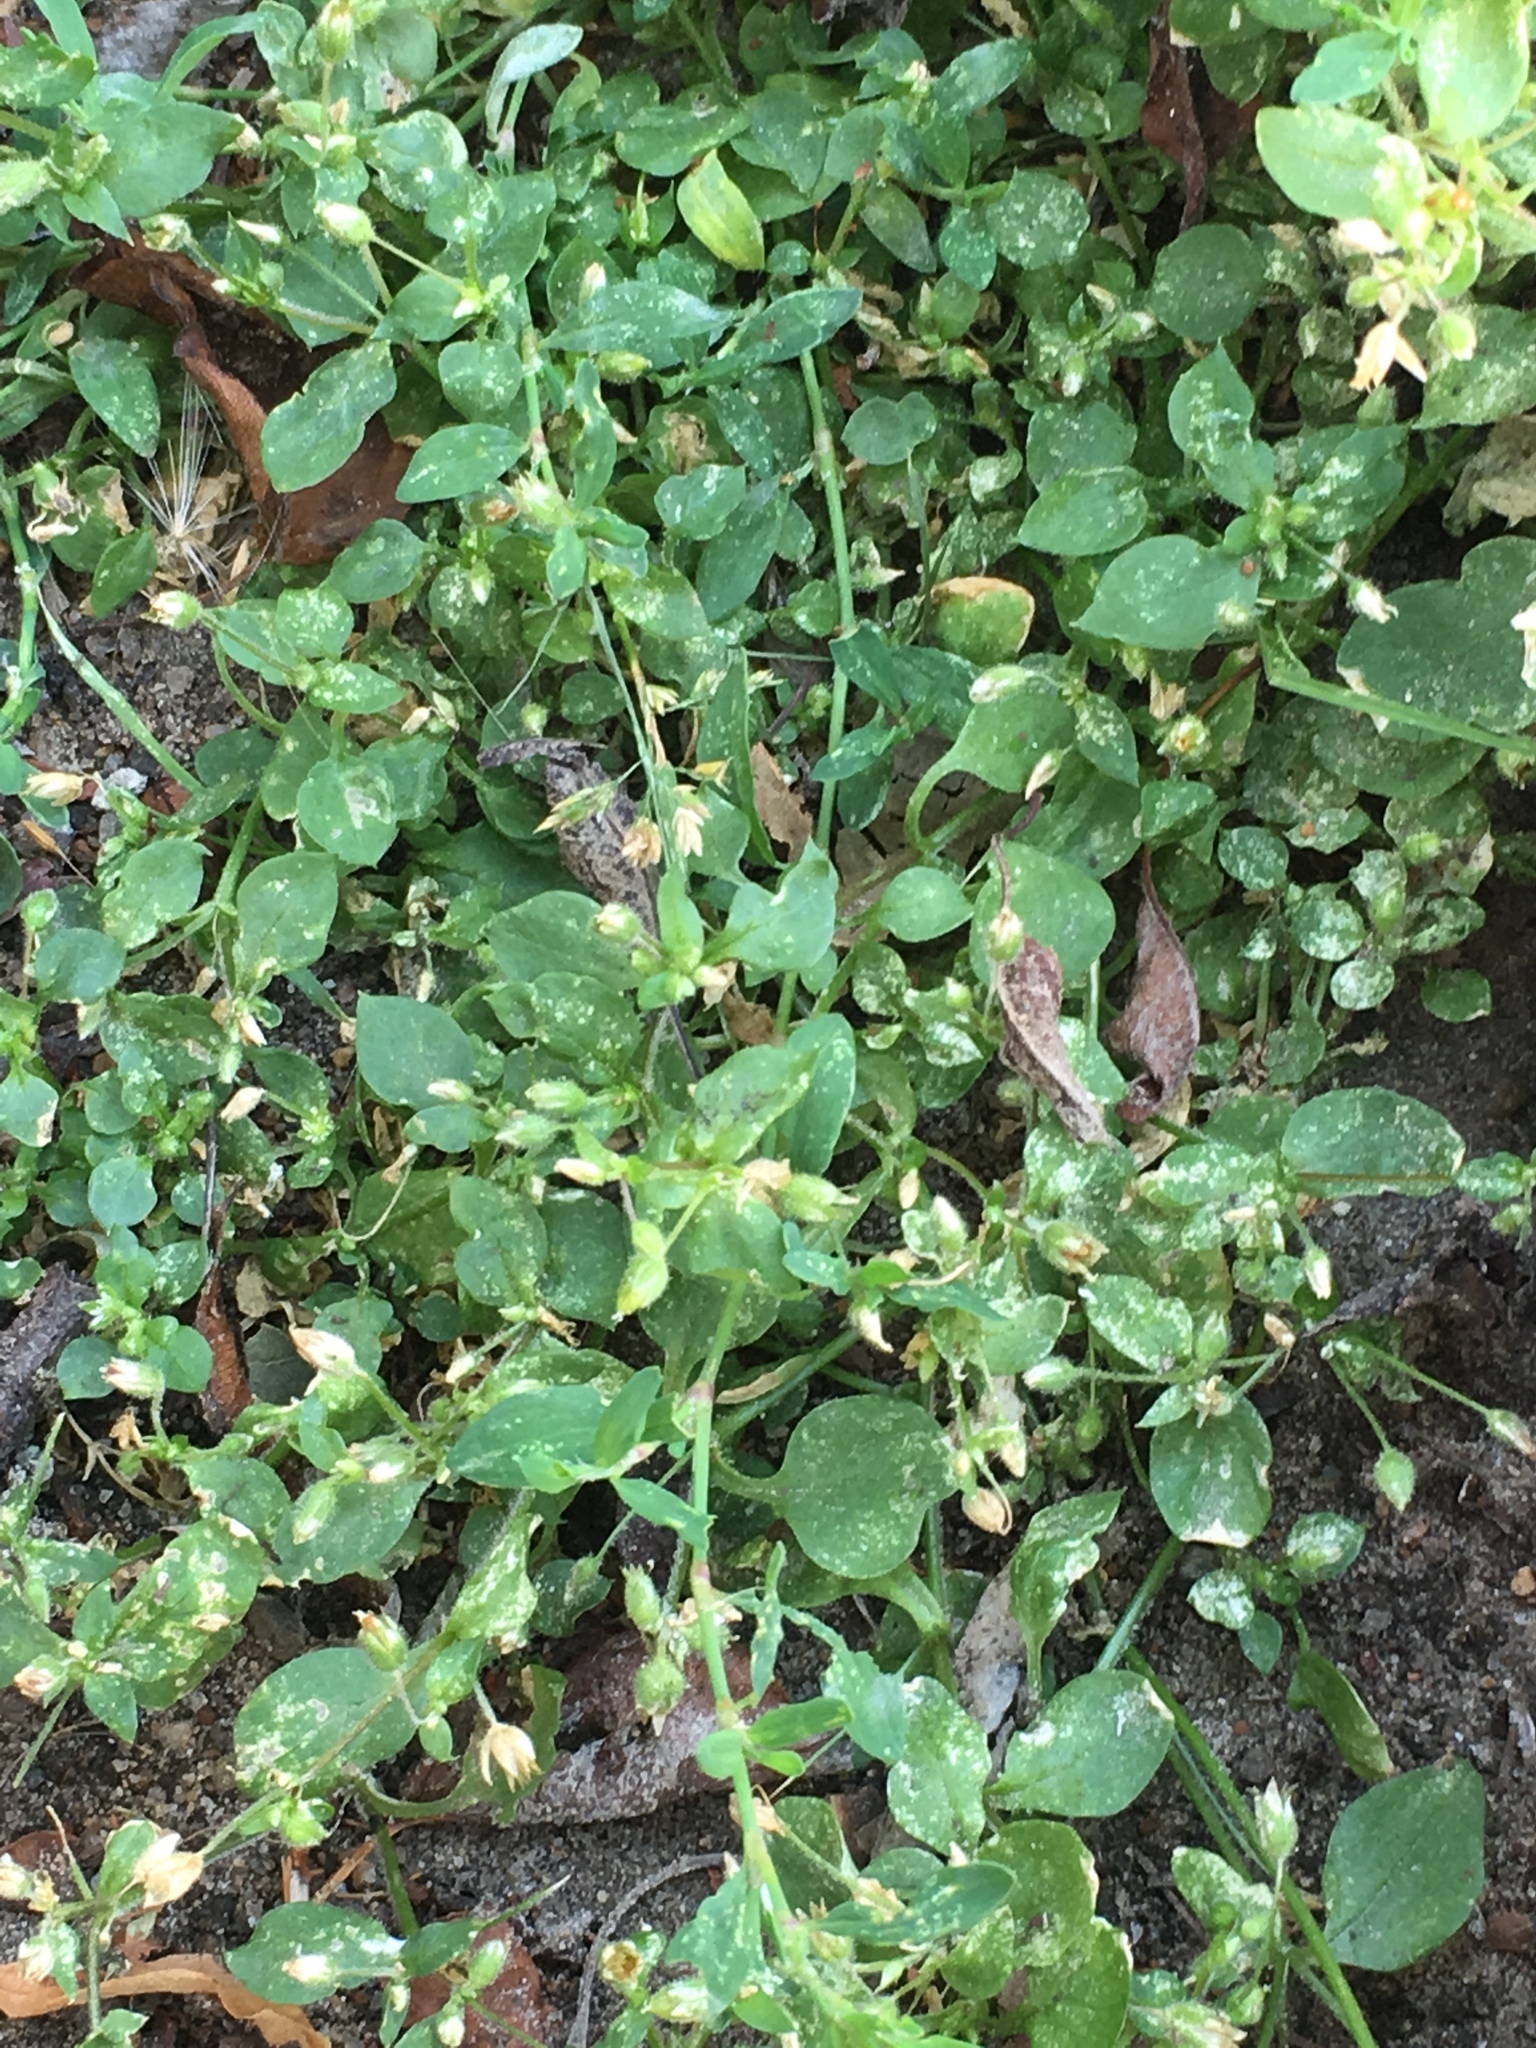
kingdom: Plantae
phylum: Tracheophyta
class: Magnoliopsida
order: Caryophyllales
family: Caryophyllaceae
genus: Stellaria
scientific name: Stellaria media
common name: Common chickweed
